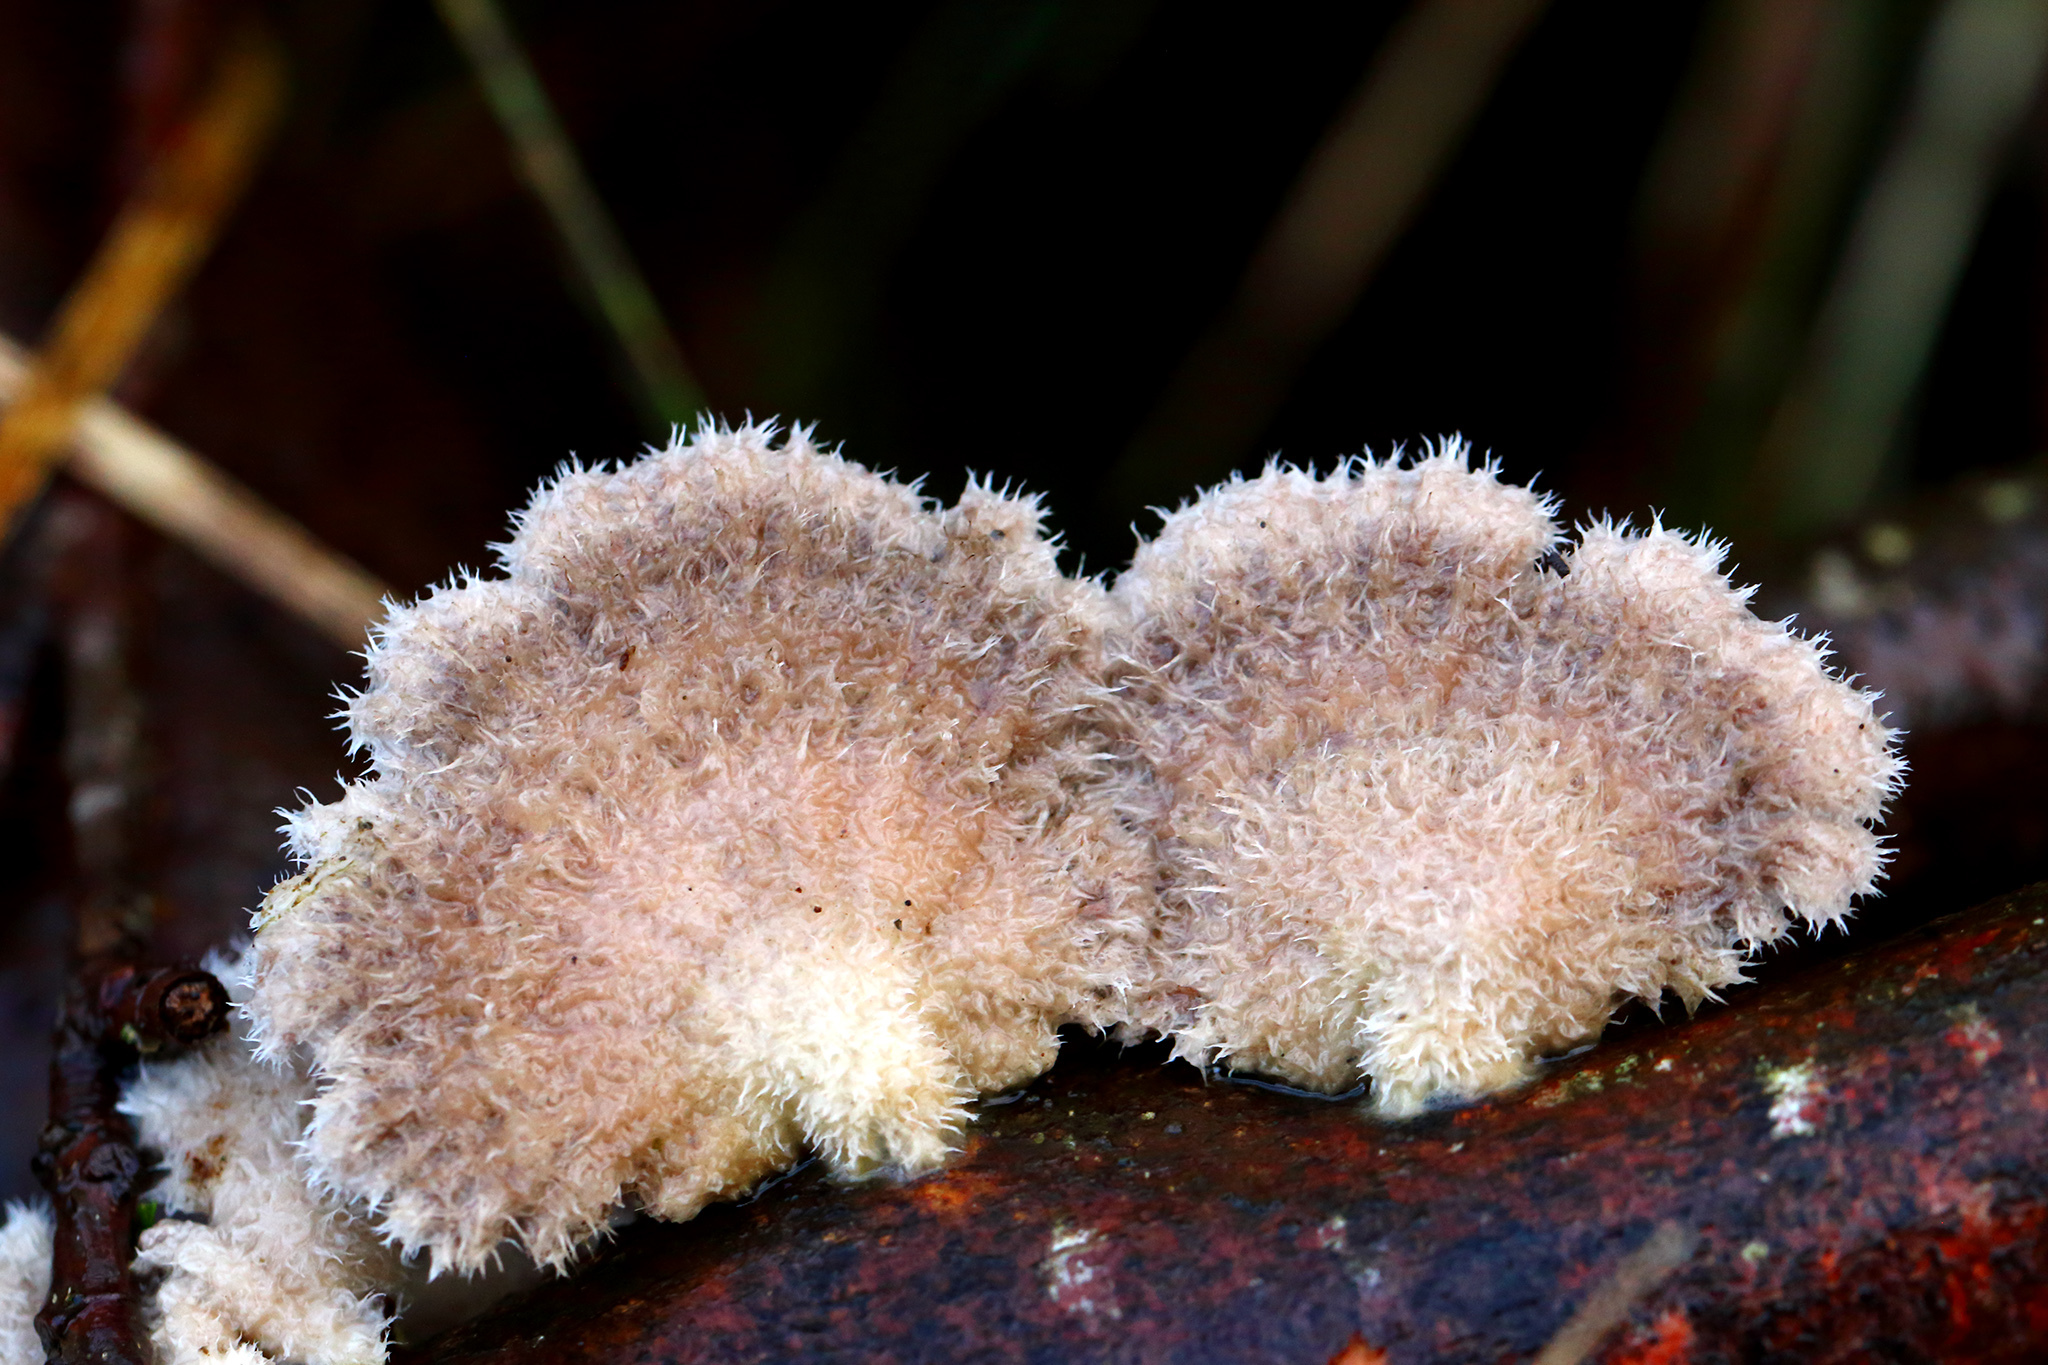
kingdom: Fungi
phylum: Basidiomycota
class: Agaricomycetes
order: Agaricales
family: Schizophyllaceae
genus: Schizophyllum
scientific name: Schizophyllum commune
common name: Common porecrust
